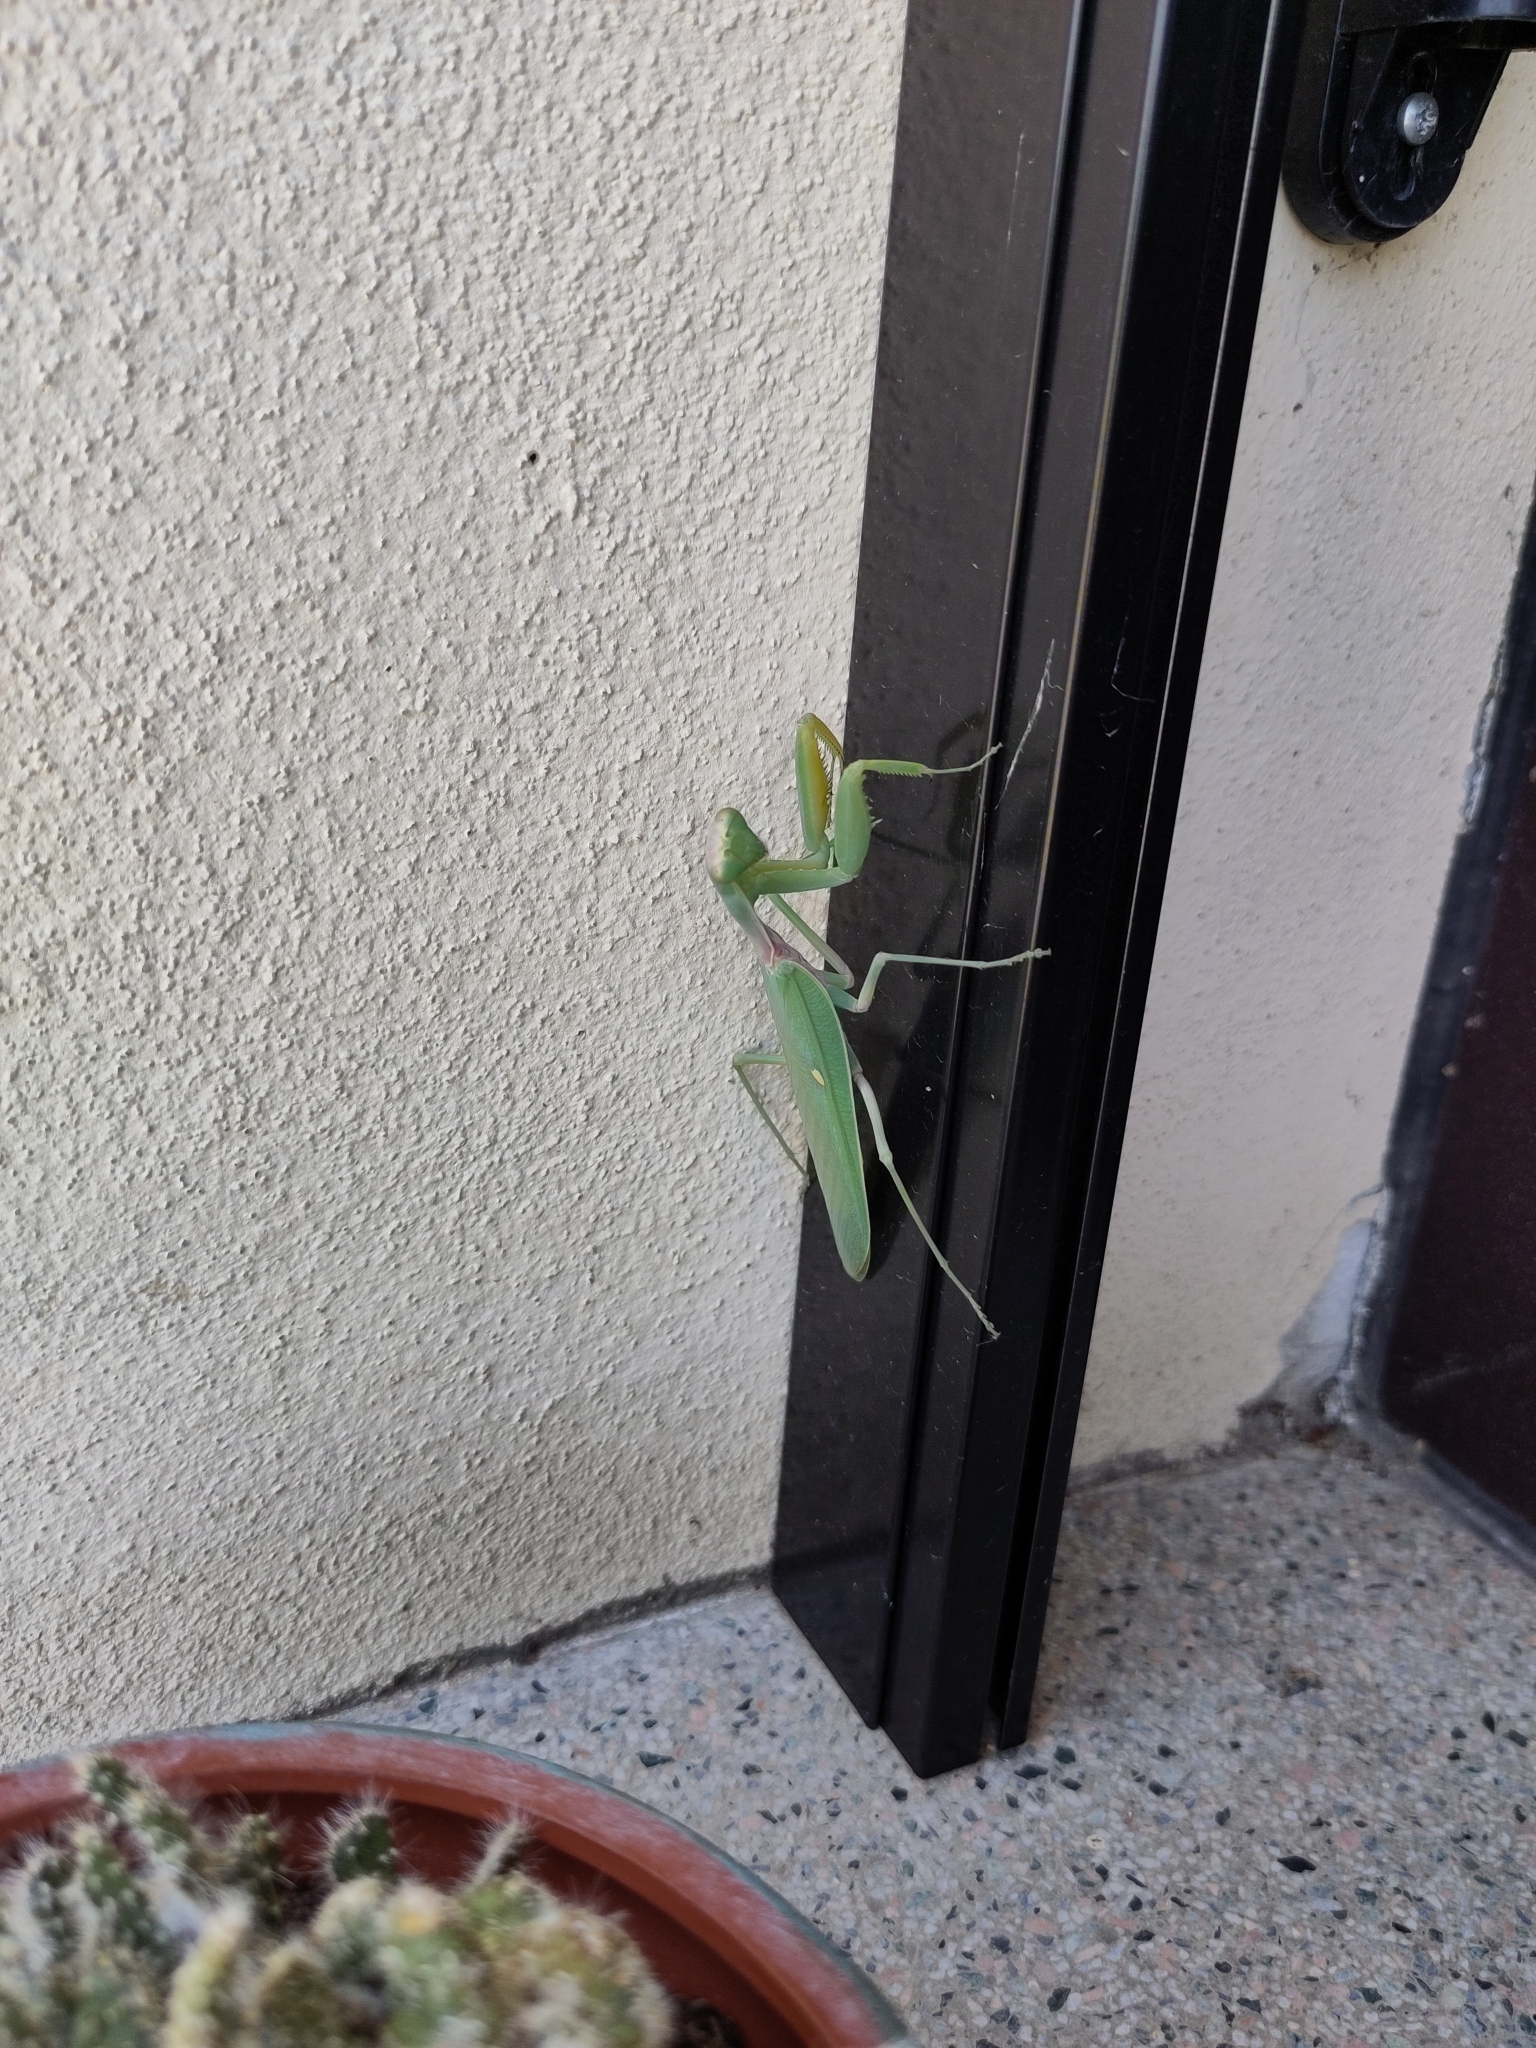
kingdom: Animalia
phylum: Arthropoda
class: Insecta
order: Mantodea
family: Mantidae
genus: Hierodula
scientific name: Hierodula transcaucasica
